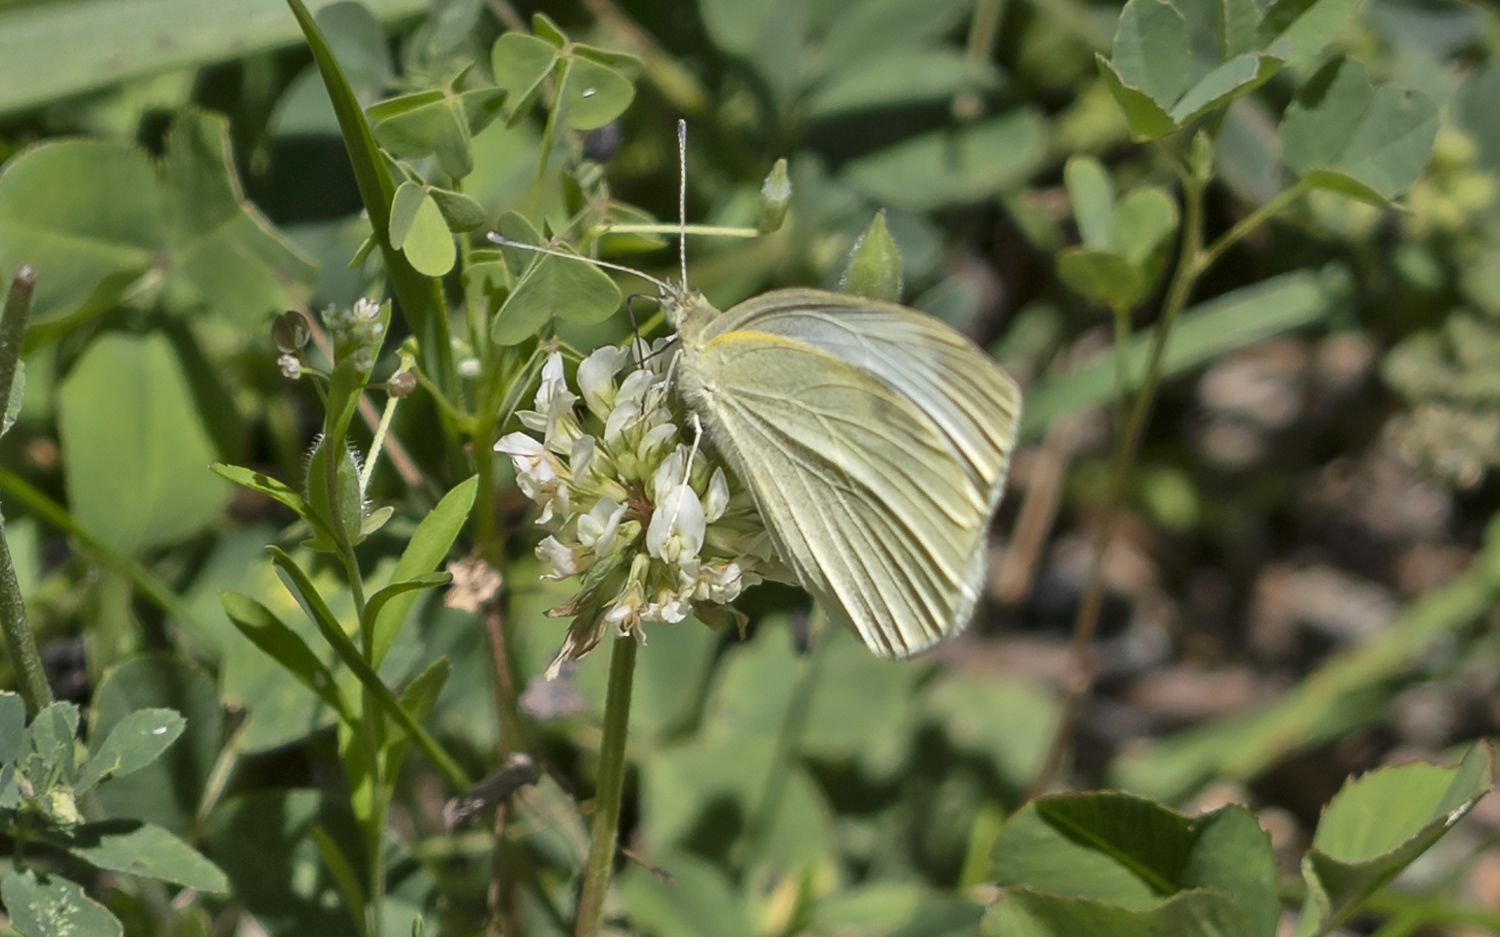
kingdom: Animalia
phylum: Arthropoda
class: Insecta
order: Lepidoptera
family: Pieridae
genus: Pieris
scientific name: Pieris rapae
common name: Small white
